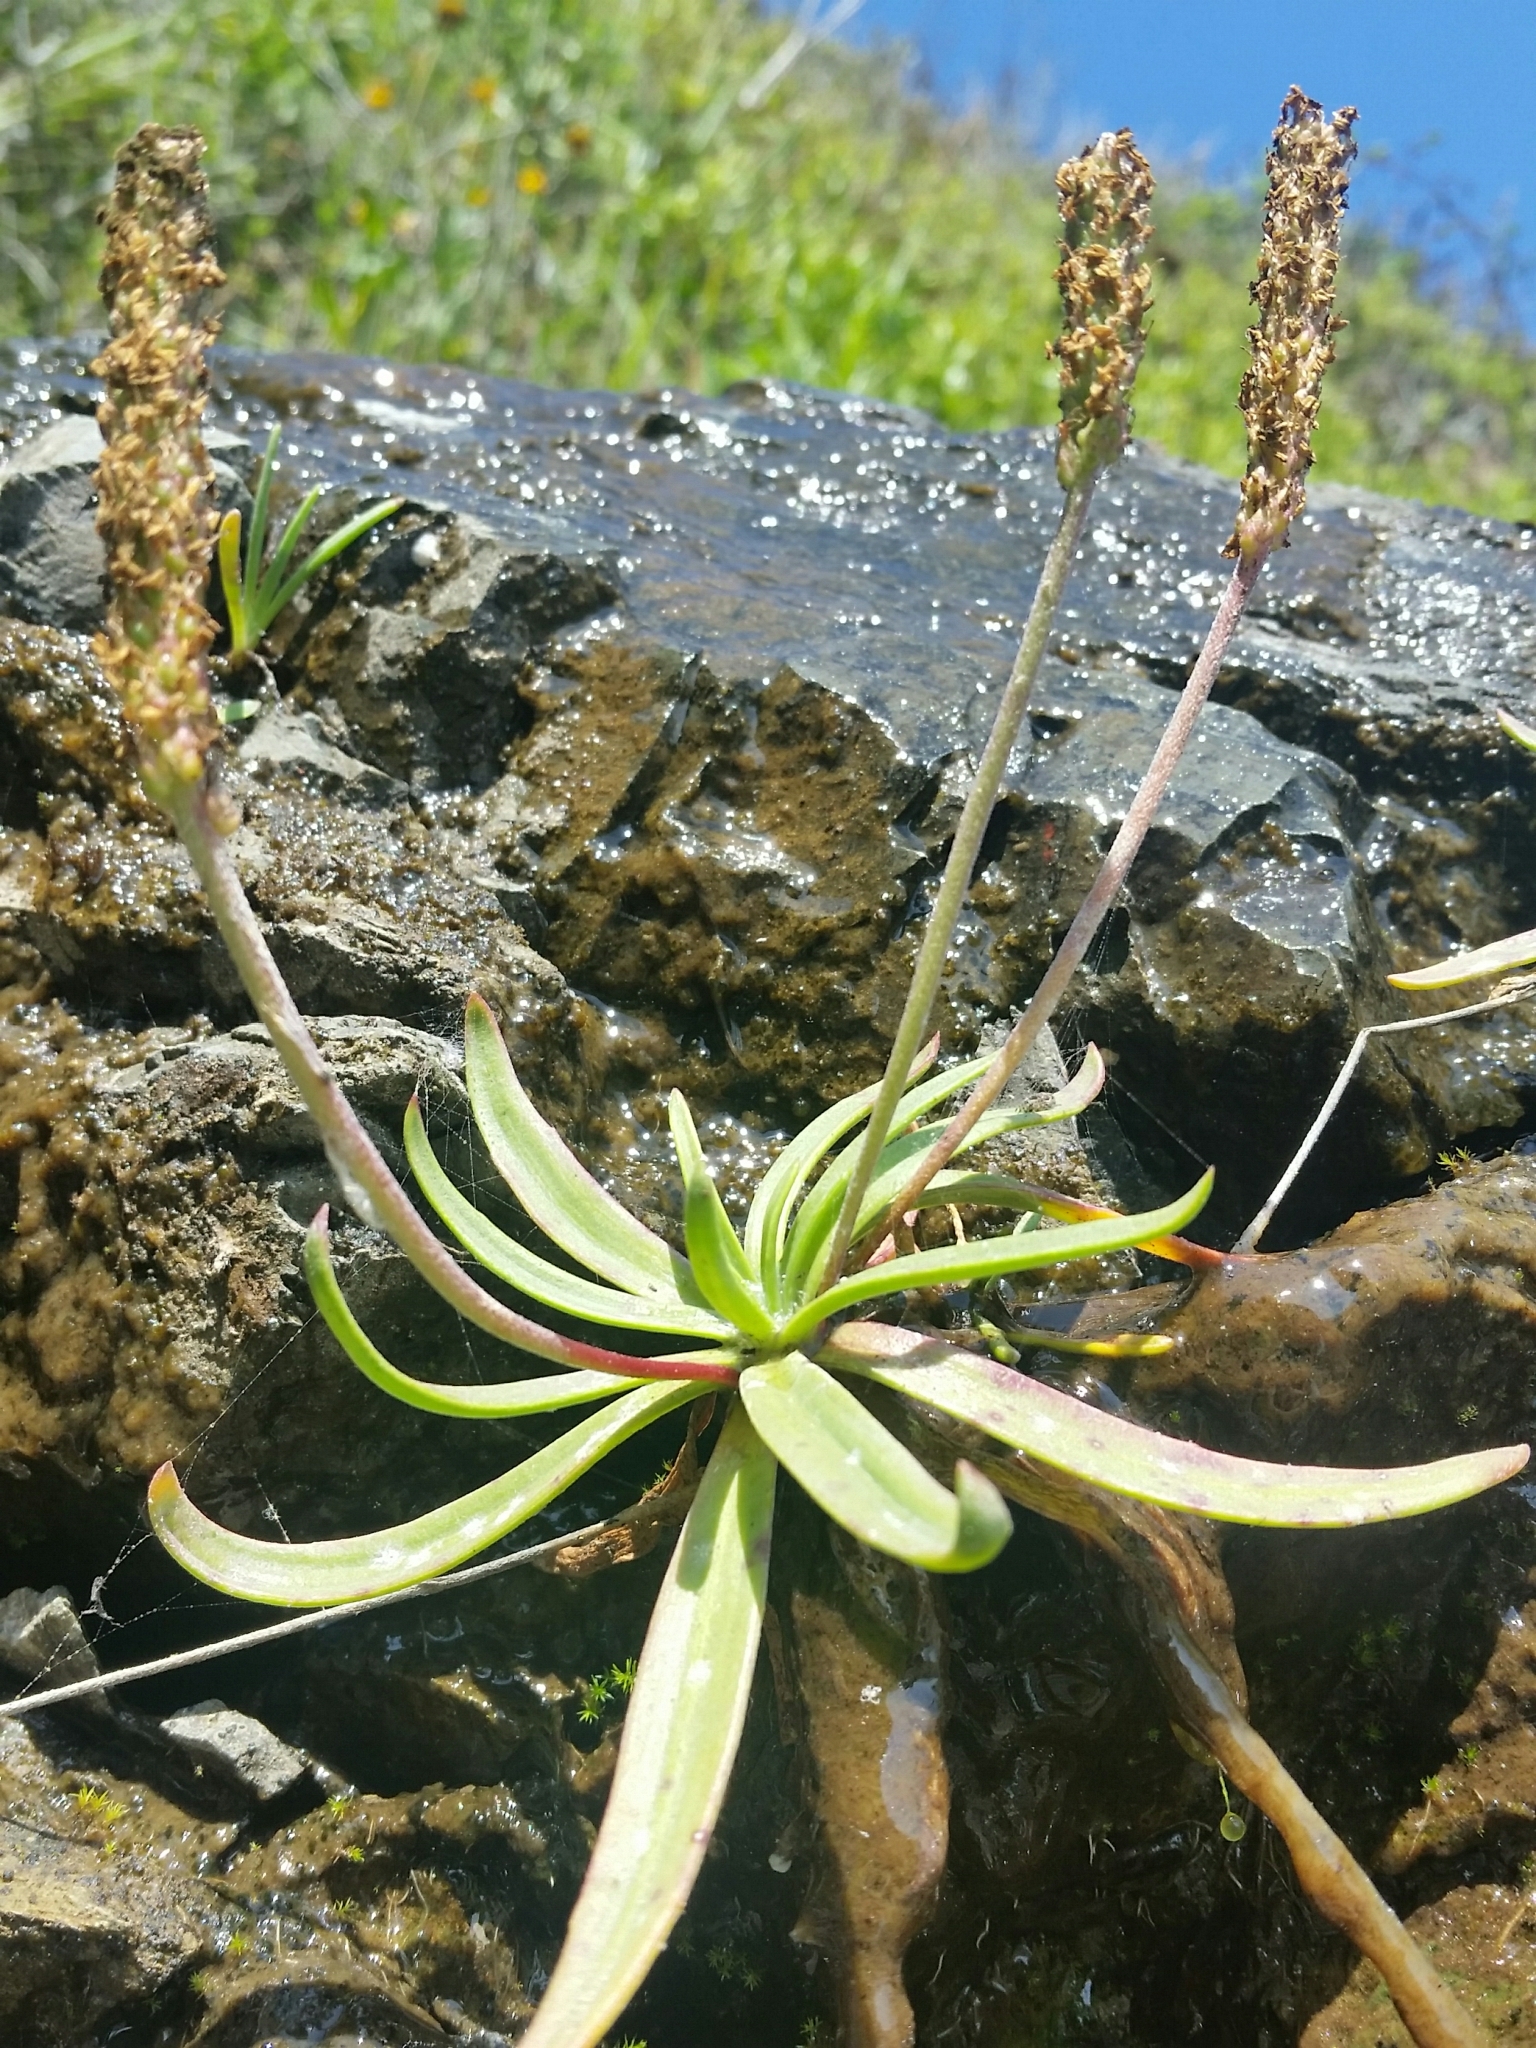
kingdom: Plantae
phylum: Tracheophyta
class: Magnoliopsida
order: Lamiales
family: Plantaginaceae
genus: Plantago
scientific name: Plantago maritima
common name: Sea plantain
